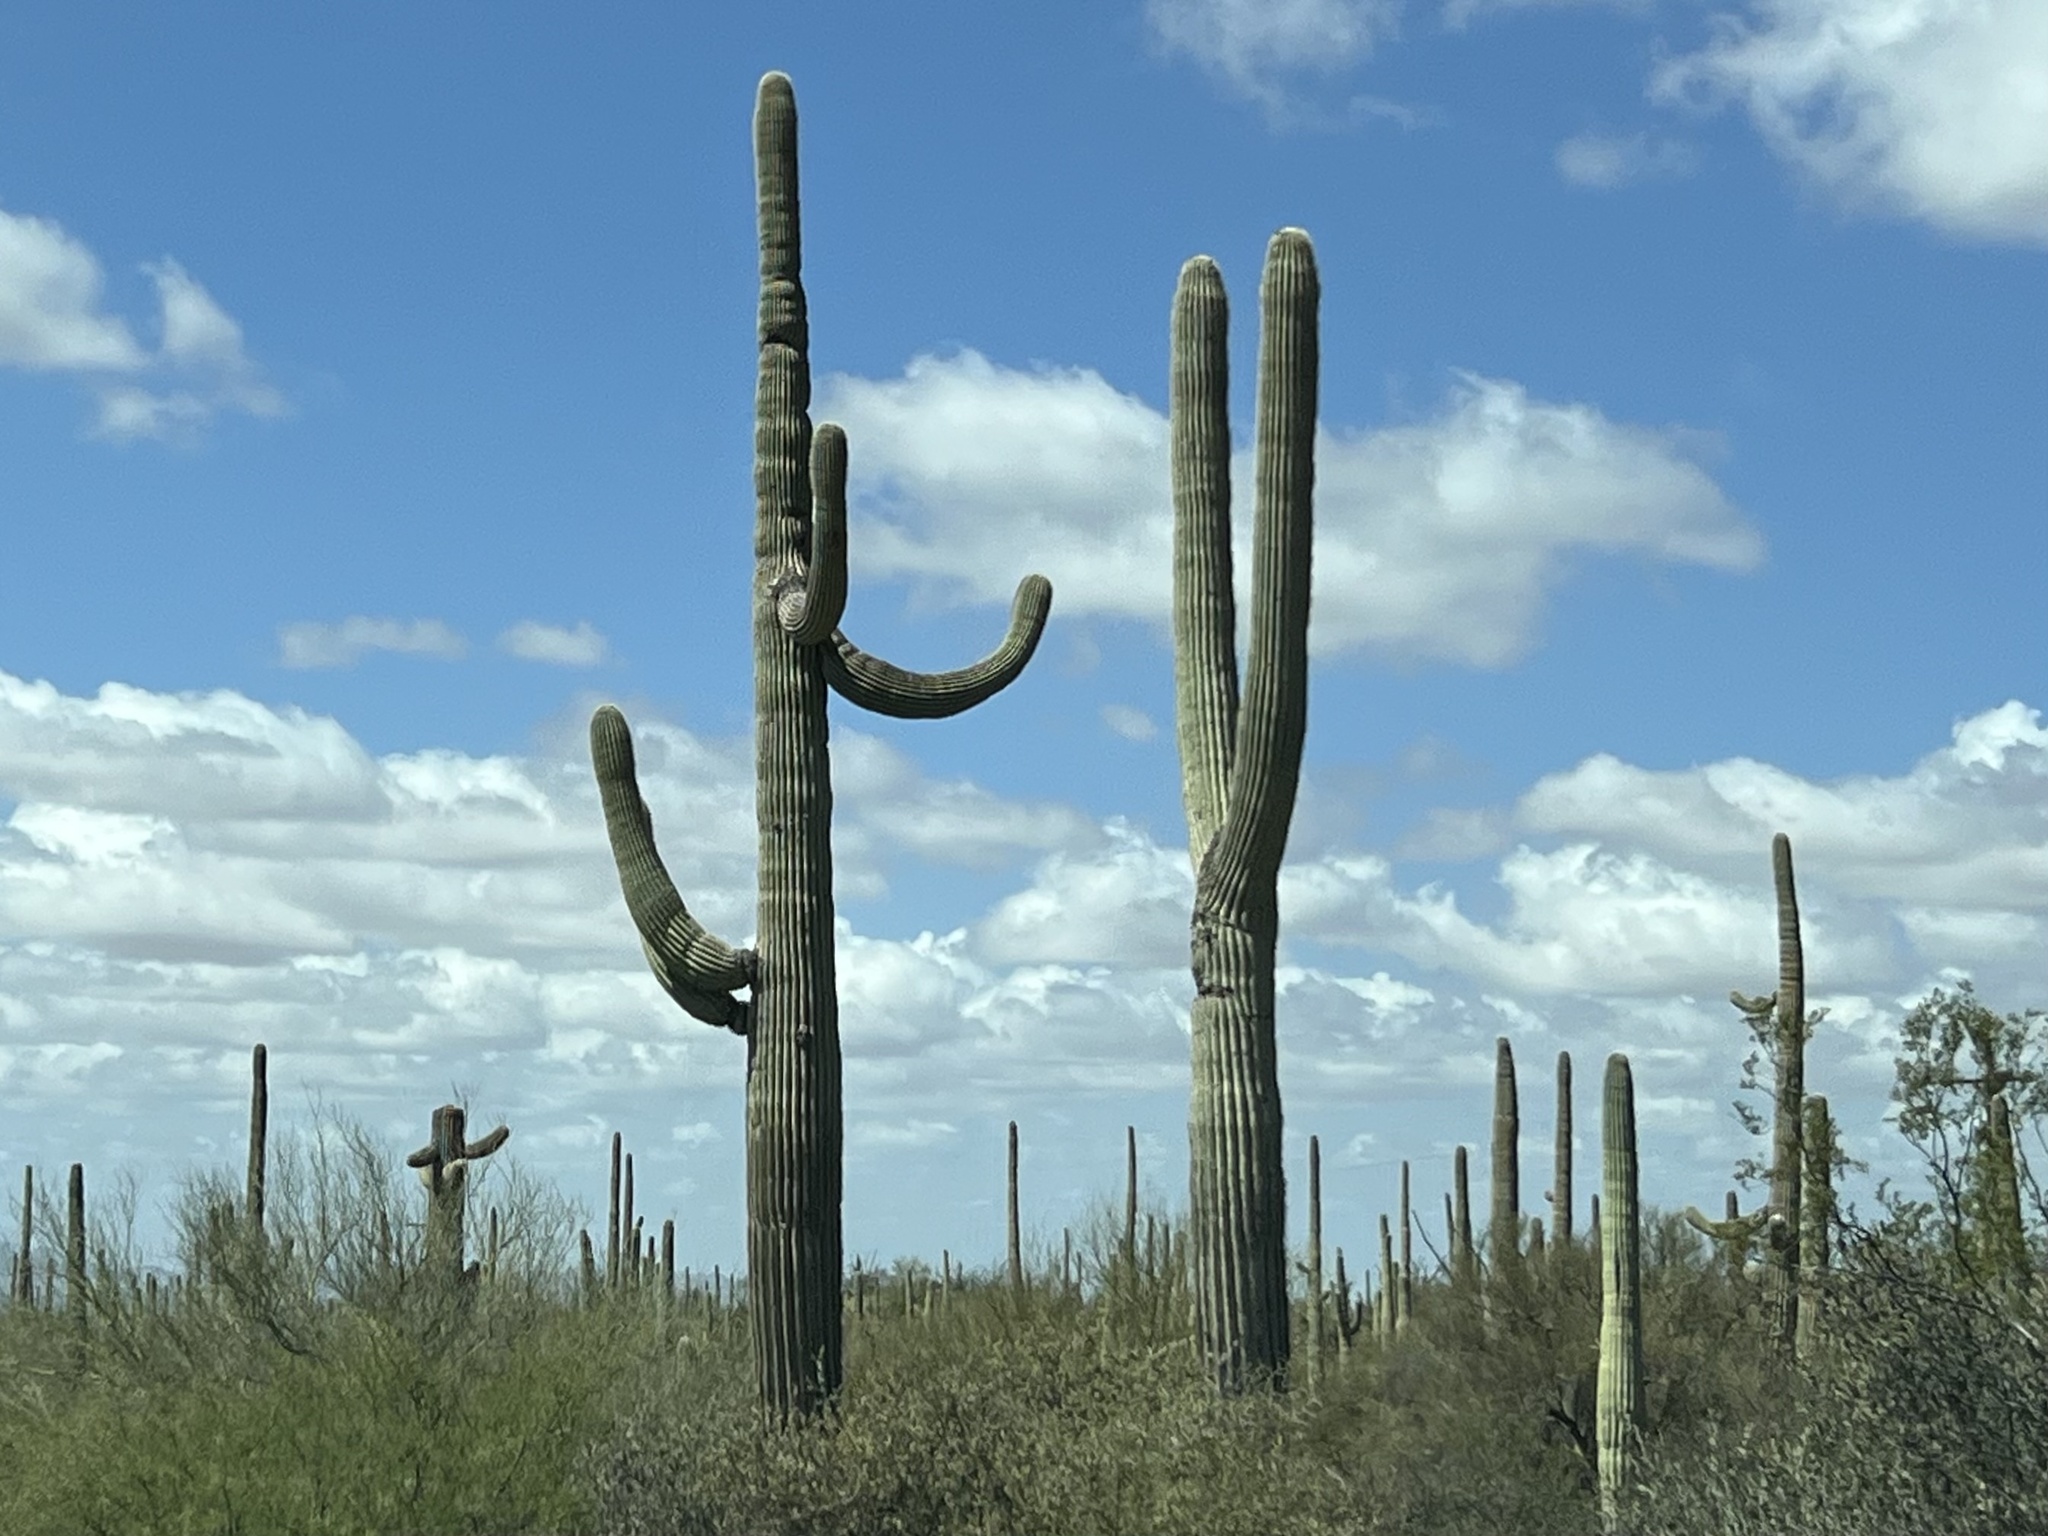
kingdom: Plantae
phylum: Tracheophyta
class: Magnoliopsida
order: Caryophyllales
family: Cactaceae
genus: Carnegiea
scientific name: Carnegiea gigantea
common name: Saguaro
